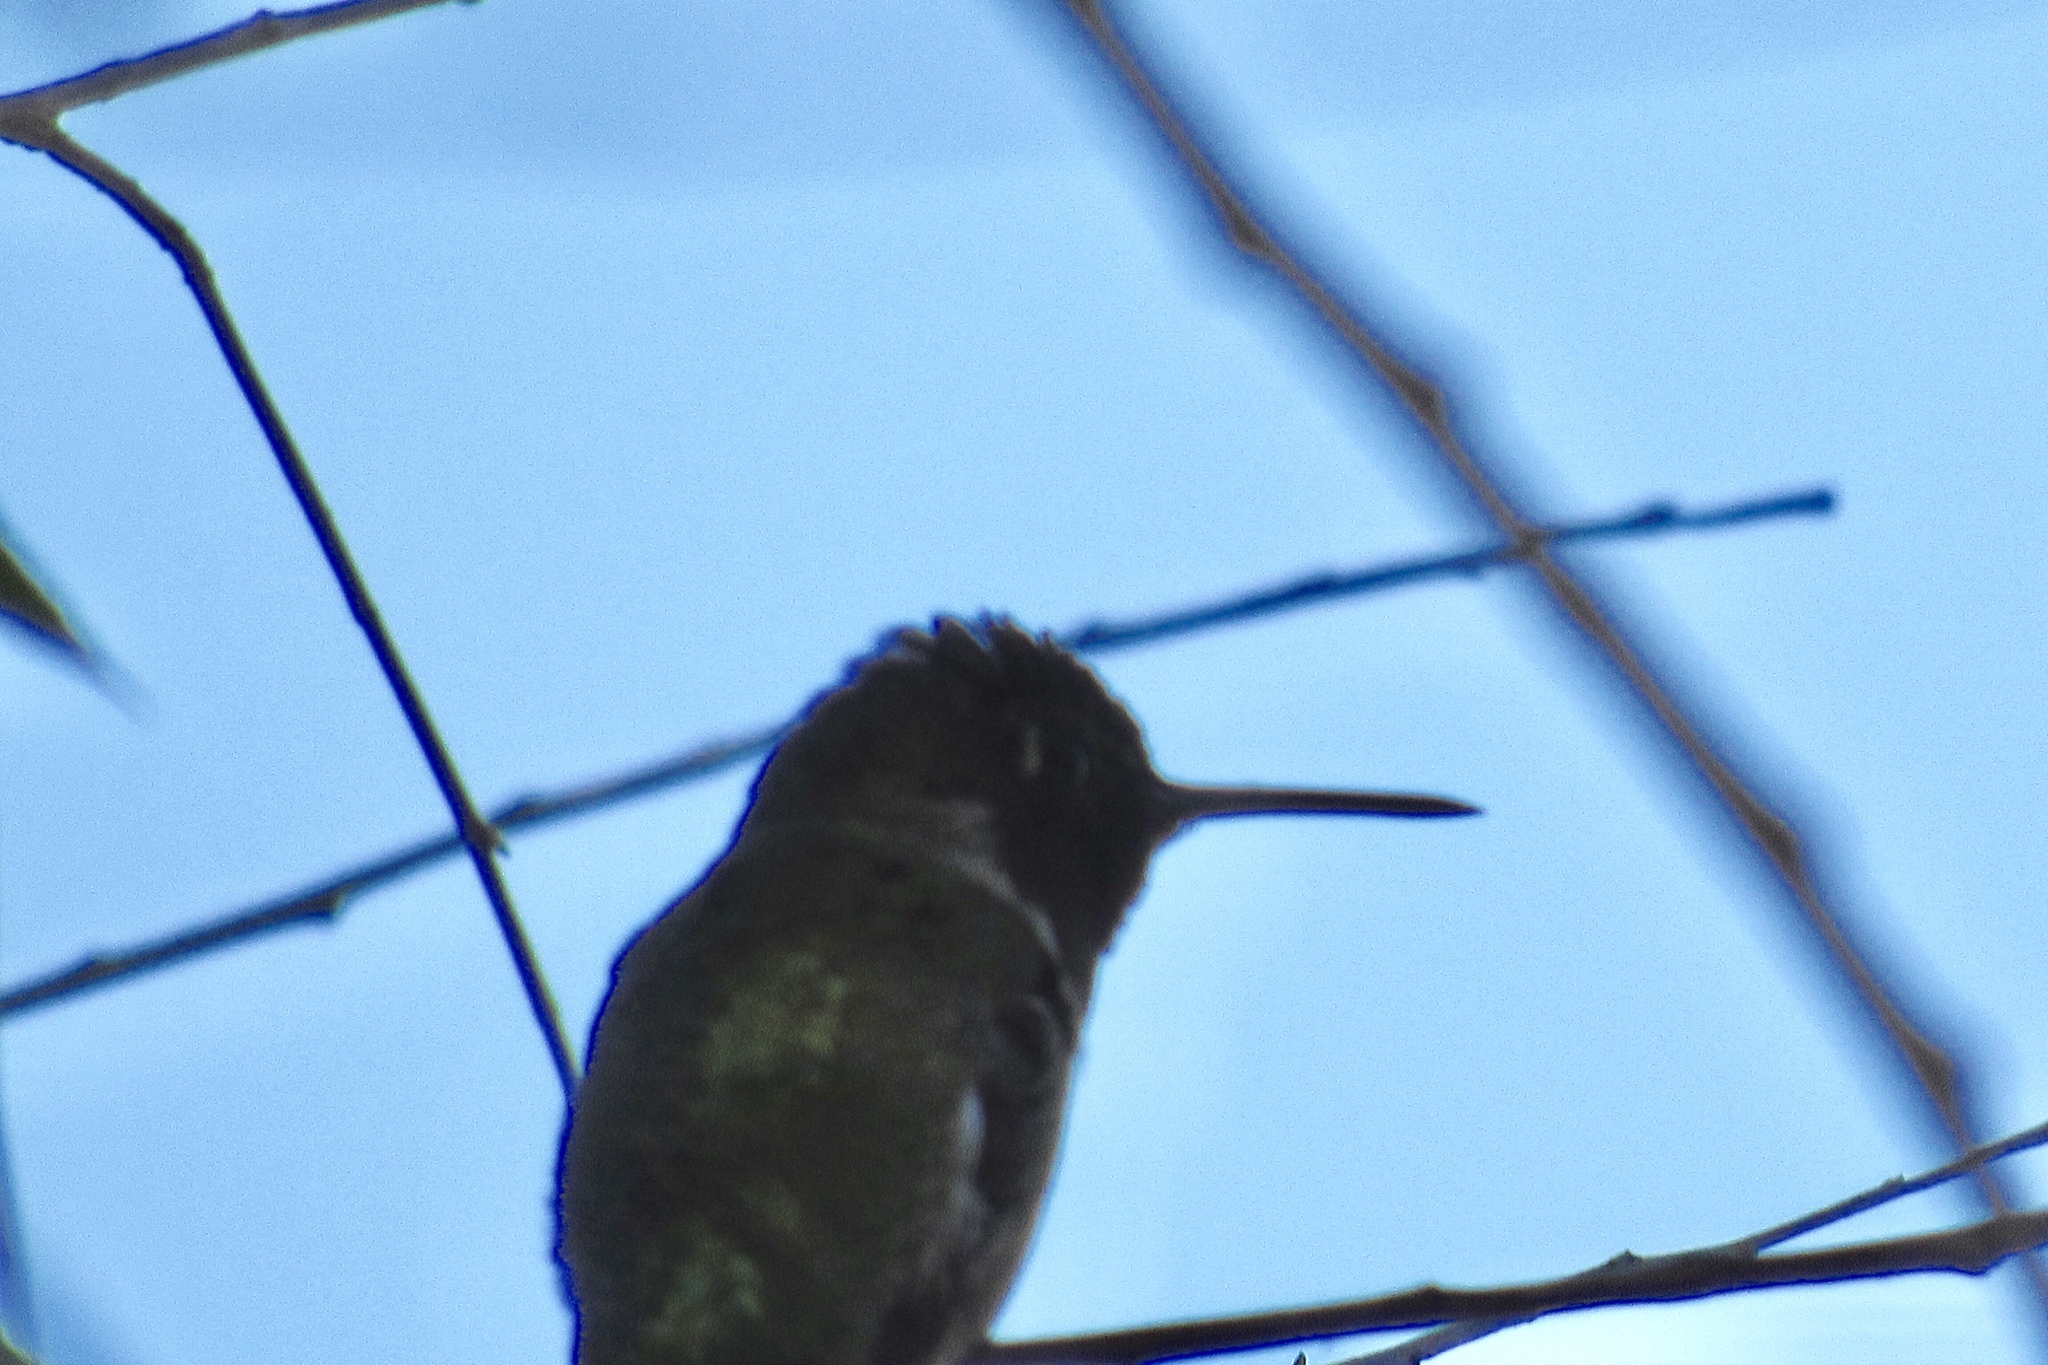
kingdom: Animalia
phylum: Chordata
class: Aves
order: Apodiformes
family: Trochilidae
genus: Calypte
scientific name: Calypte anna
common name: Anna's hummingbird
